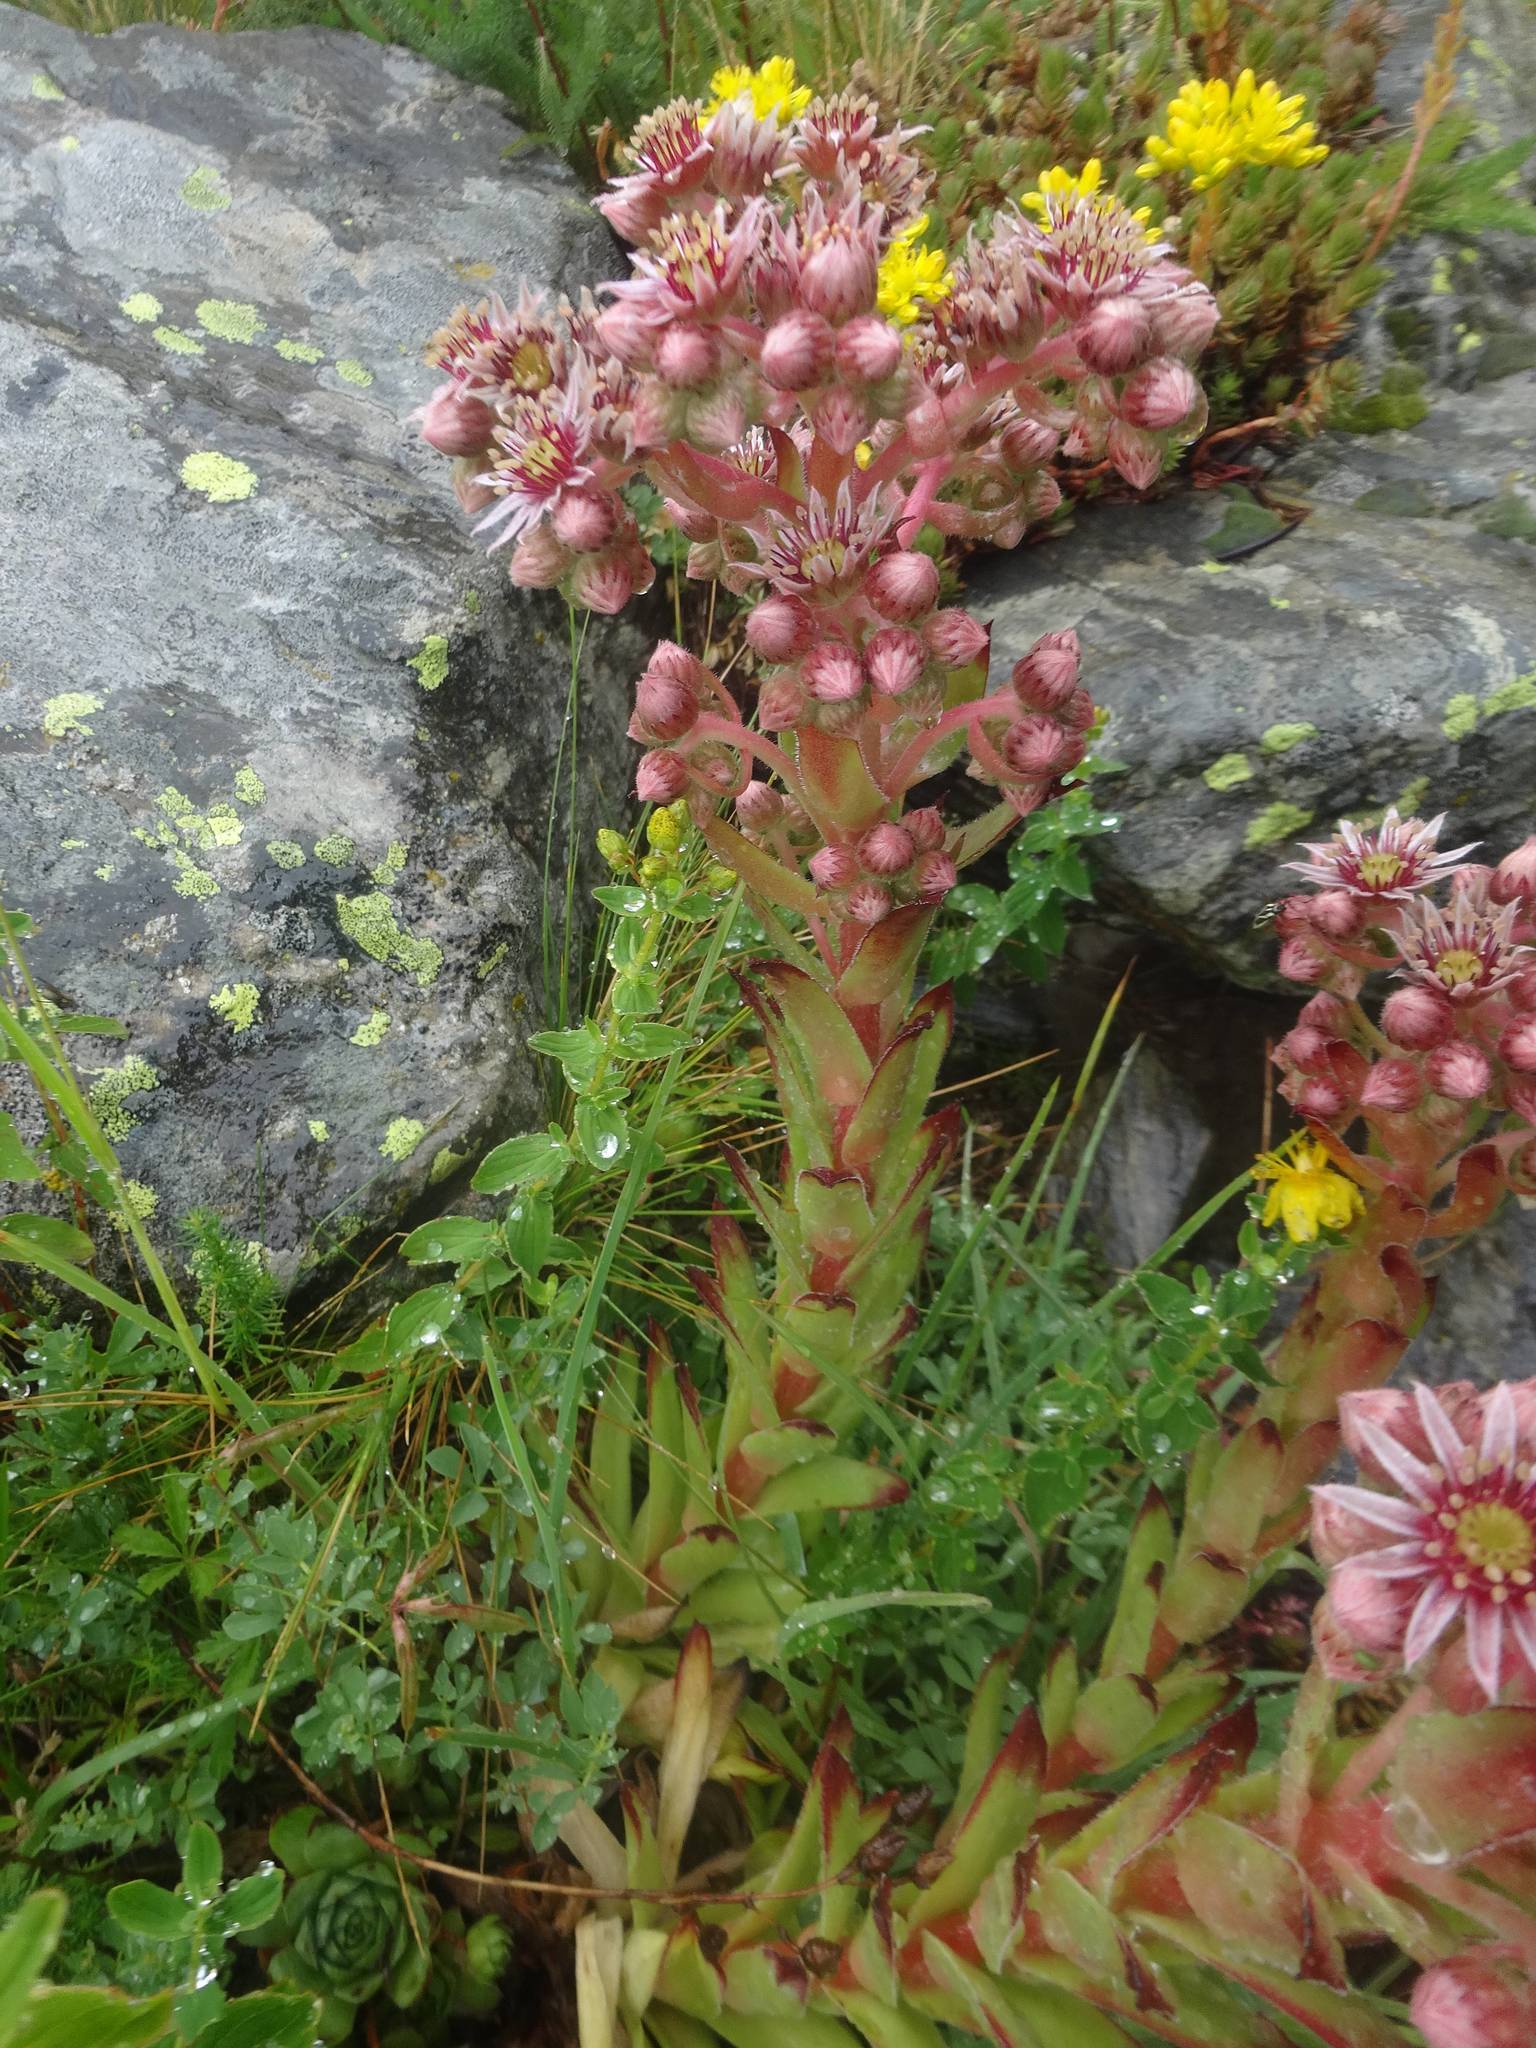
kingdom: Plantae
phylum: Tracheophyta
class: Magnoliopsida
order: Saxifragales
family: Crassulaceae
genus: Sempervivum
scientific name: Sempervivum tectorum
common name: House-leek
